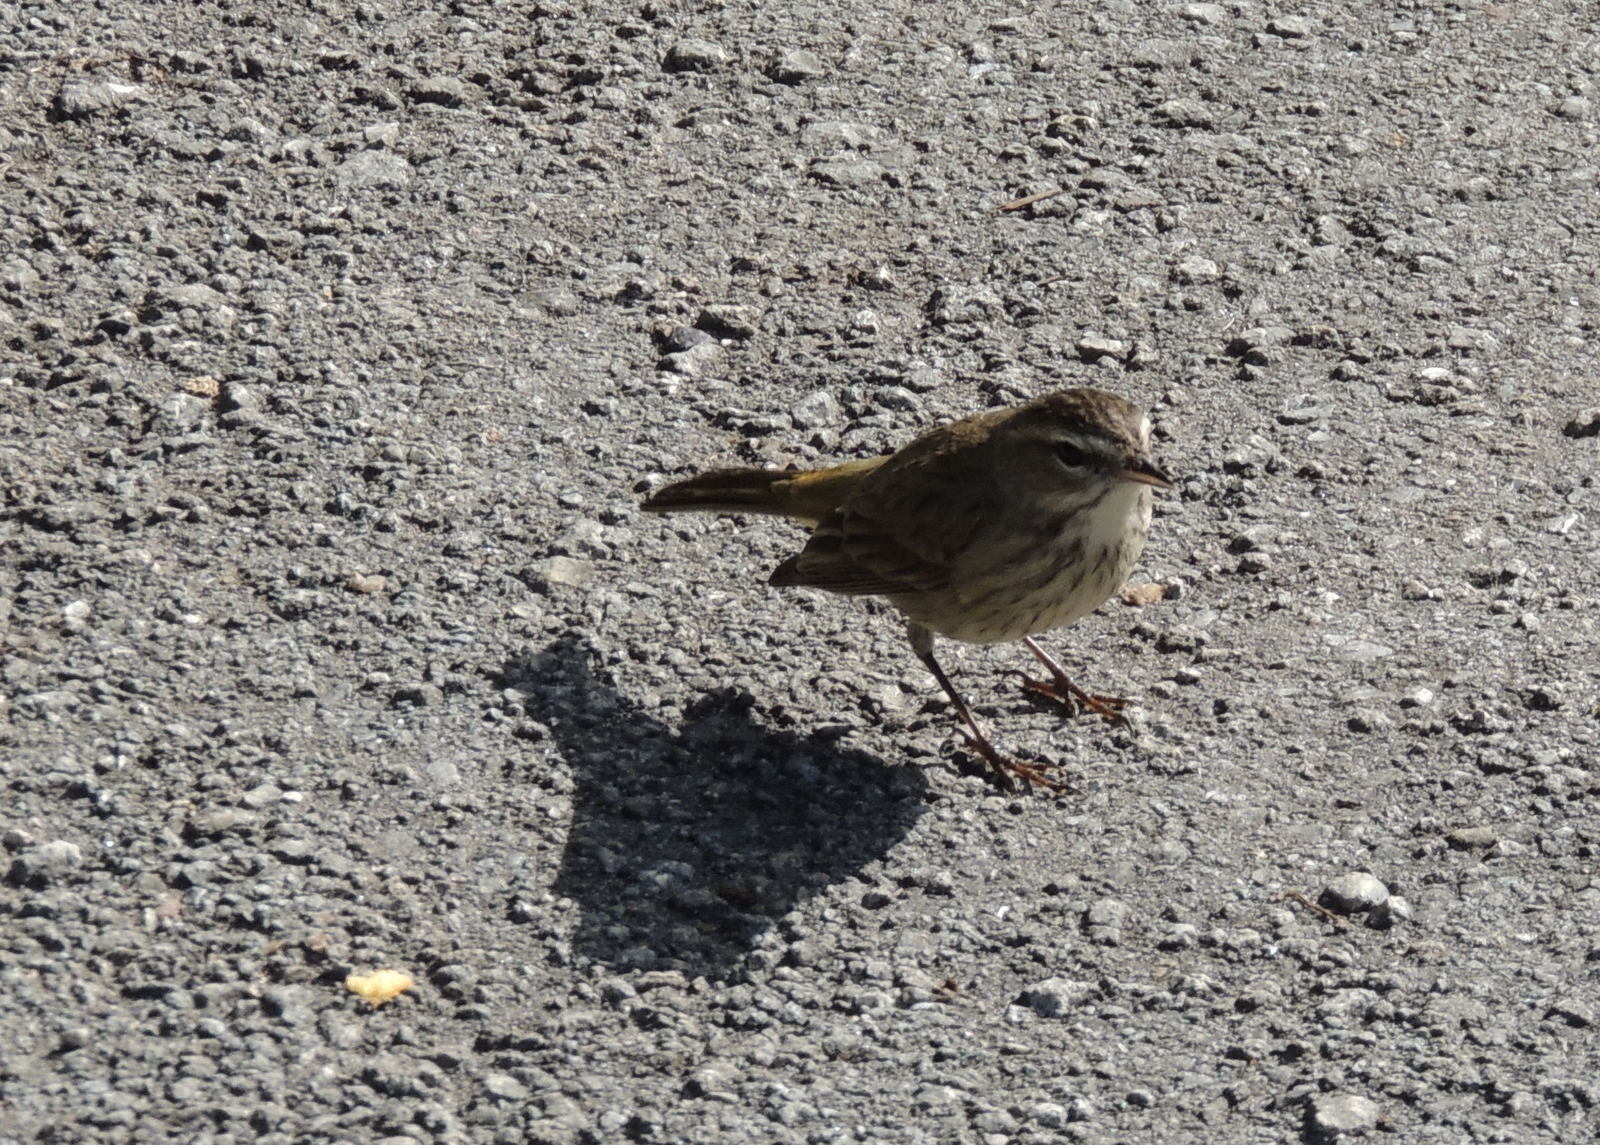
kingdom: Animalia
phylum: Chordata
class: Aves
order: Passeriformes
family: Parulidae
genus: Setophaga
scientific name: Setophaga palmarum
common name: Palm warbler
